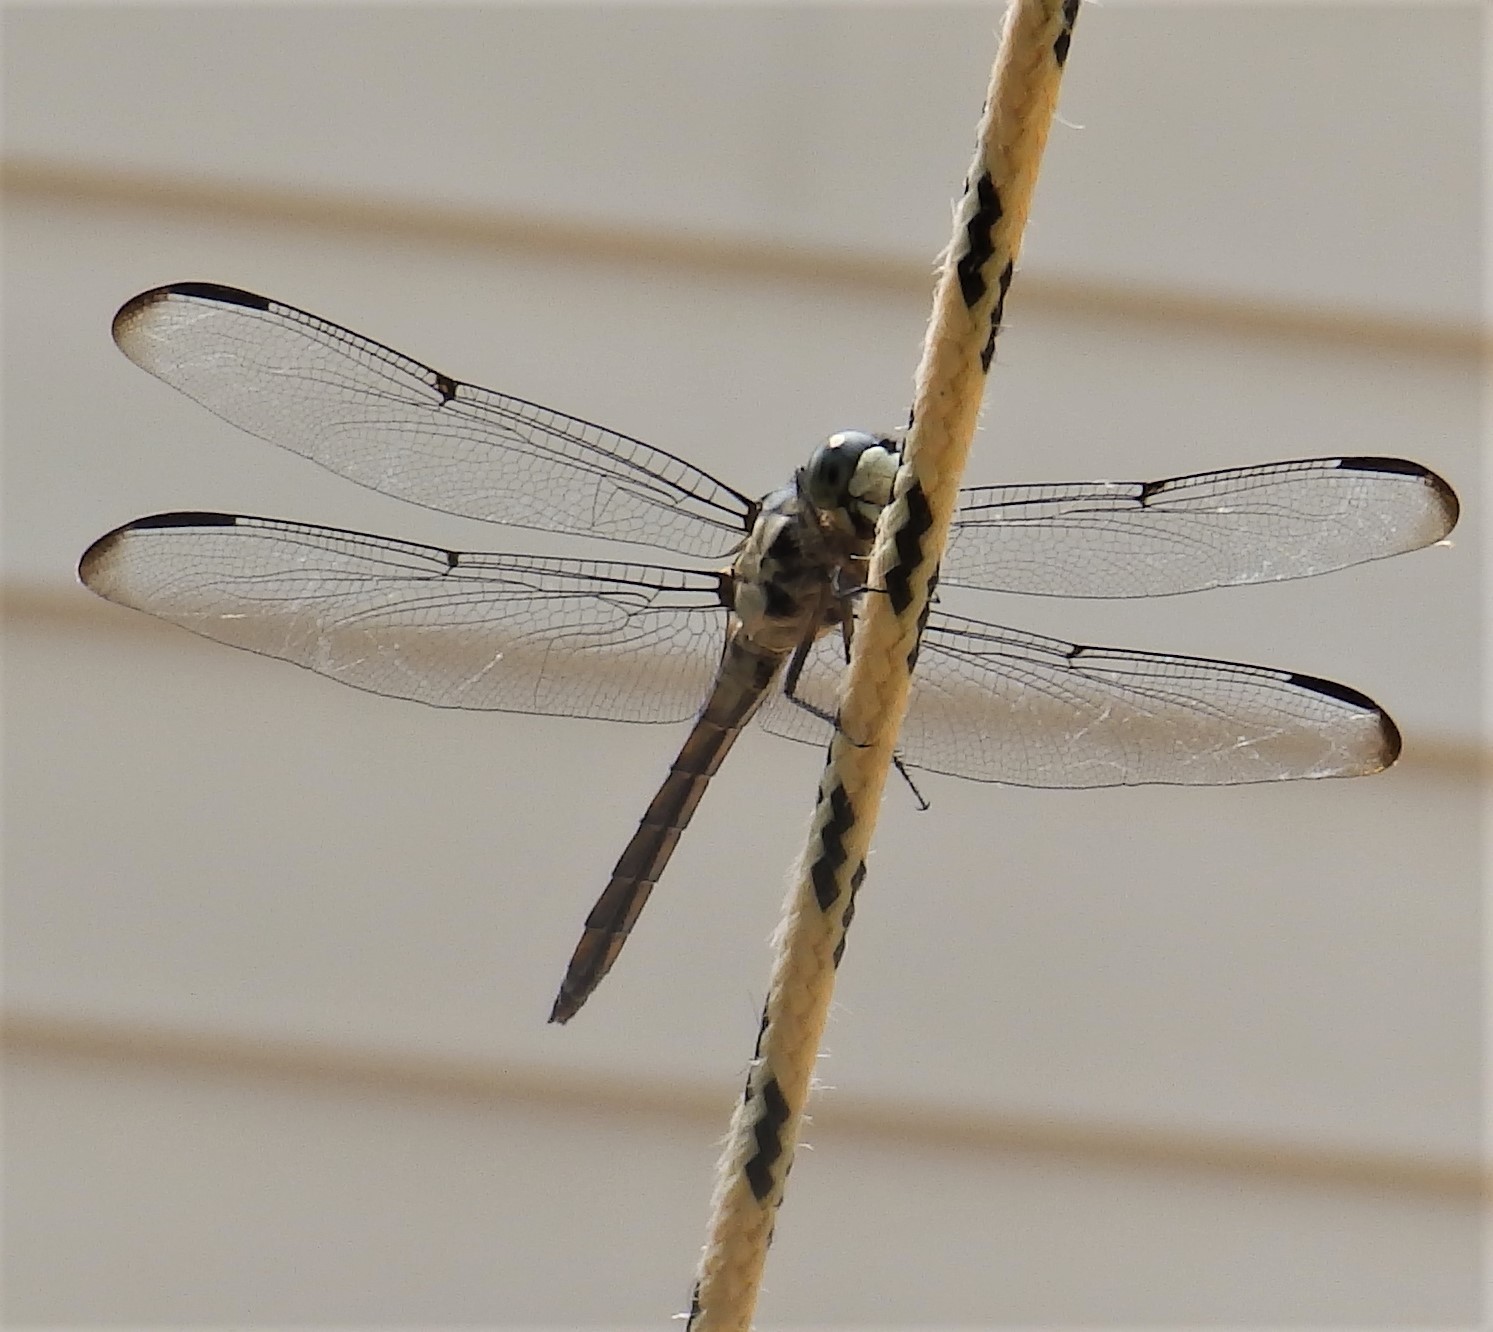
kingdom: Animalia
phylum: Arthropoda
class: Insecta
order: Odonata
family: Libellulidae
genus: Libellula
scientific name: Libellula vibrans
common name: Great blue skimmer
